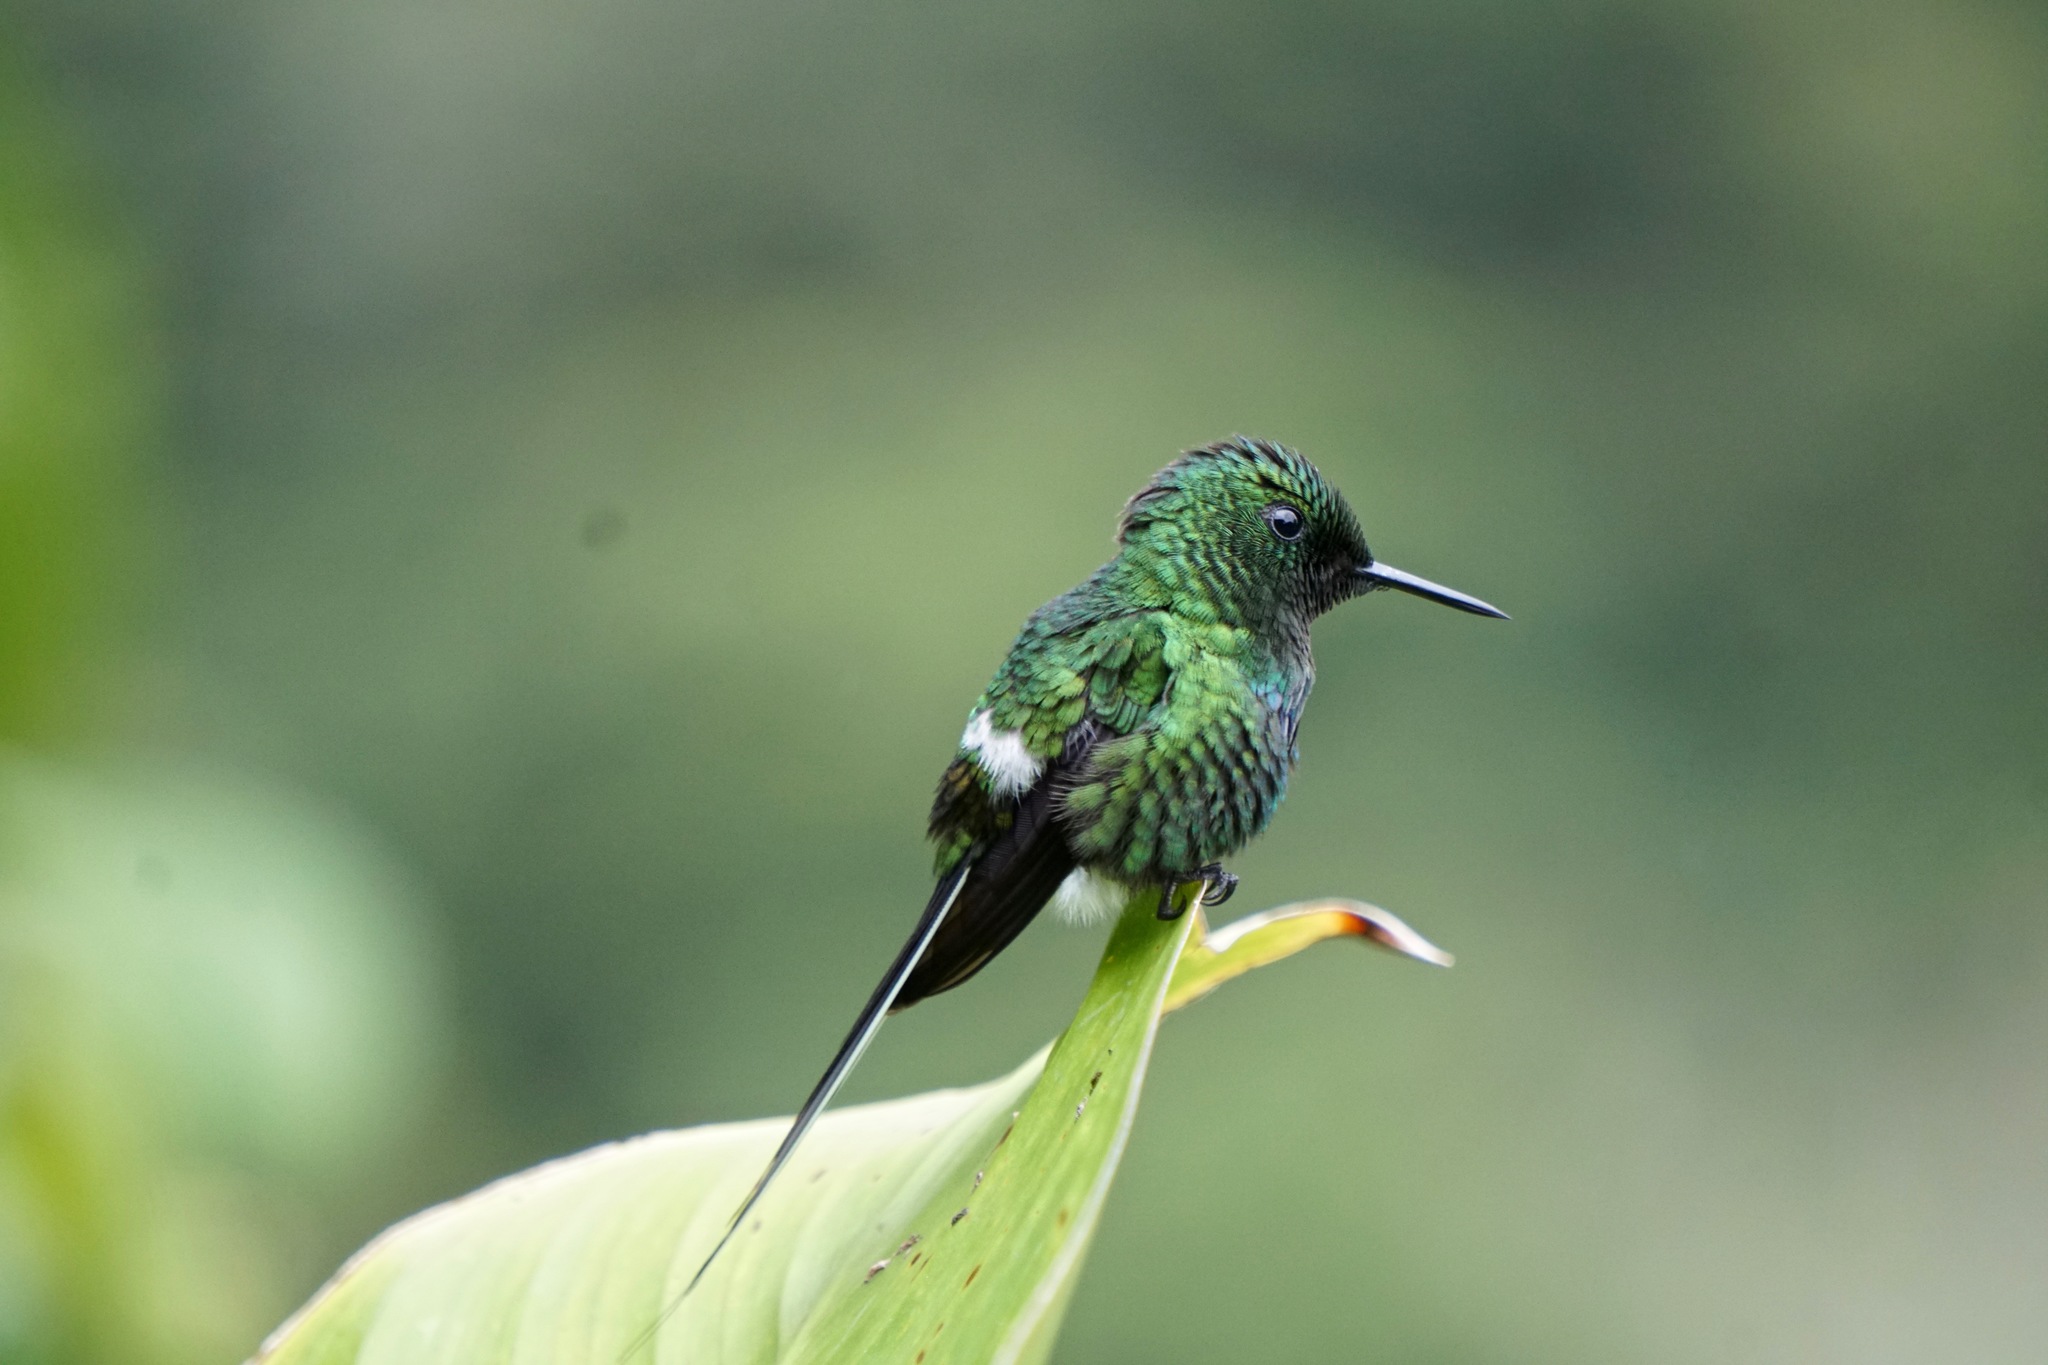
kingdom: Animalia
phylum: Chordata
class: Aves
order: Apodiformes
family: Trochilidae
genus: Discosura
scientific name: Discosura conversii
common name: Green thorntail
